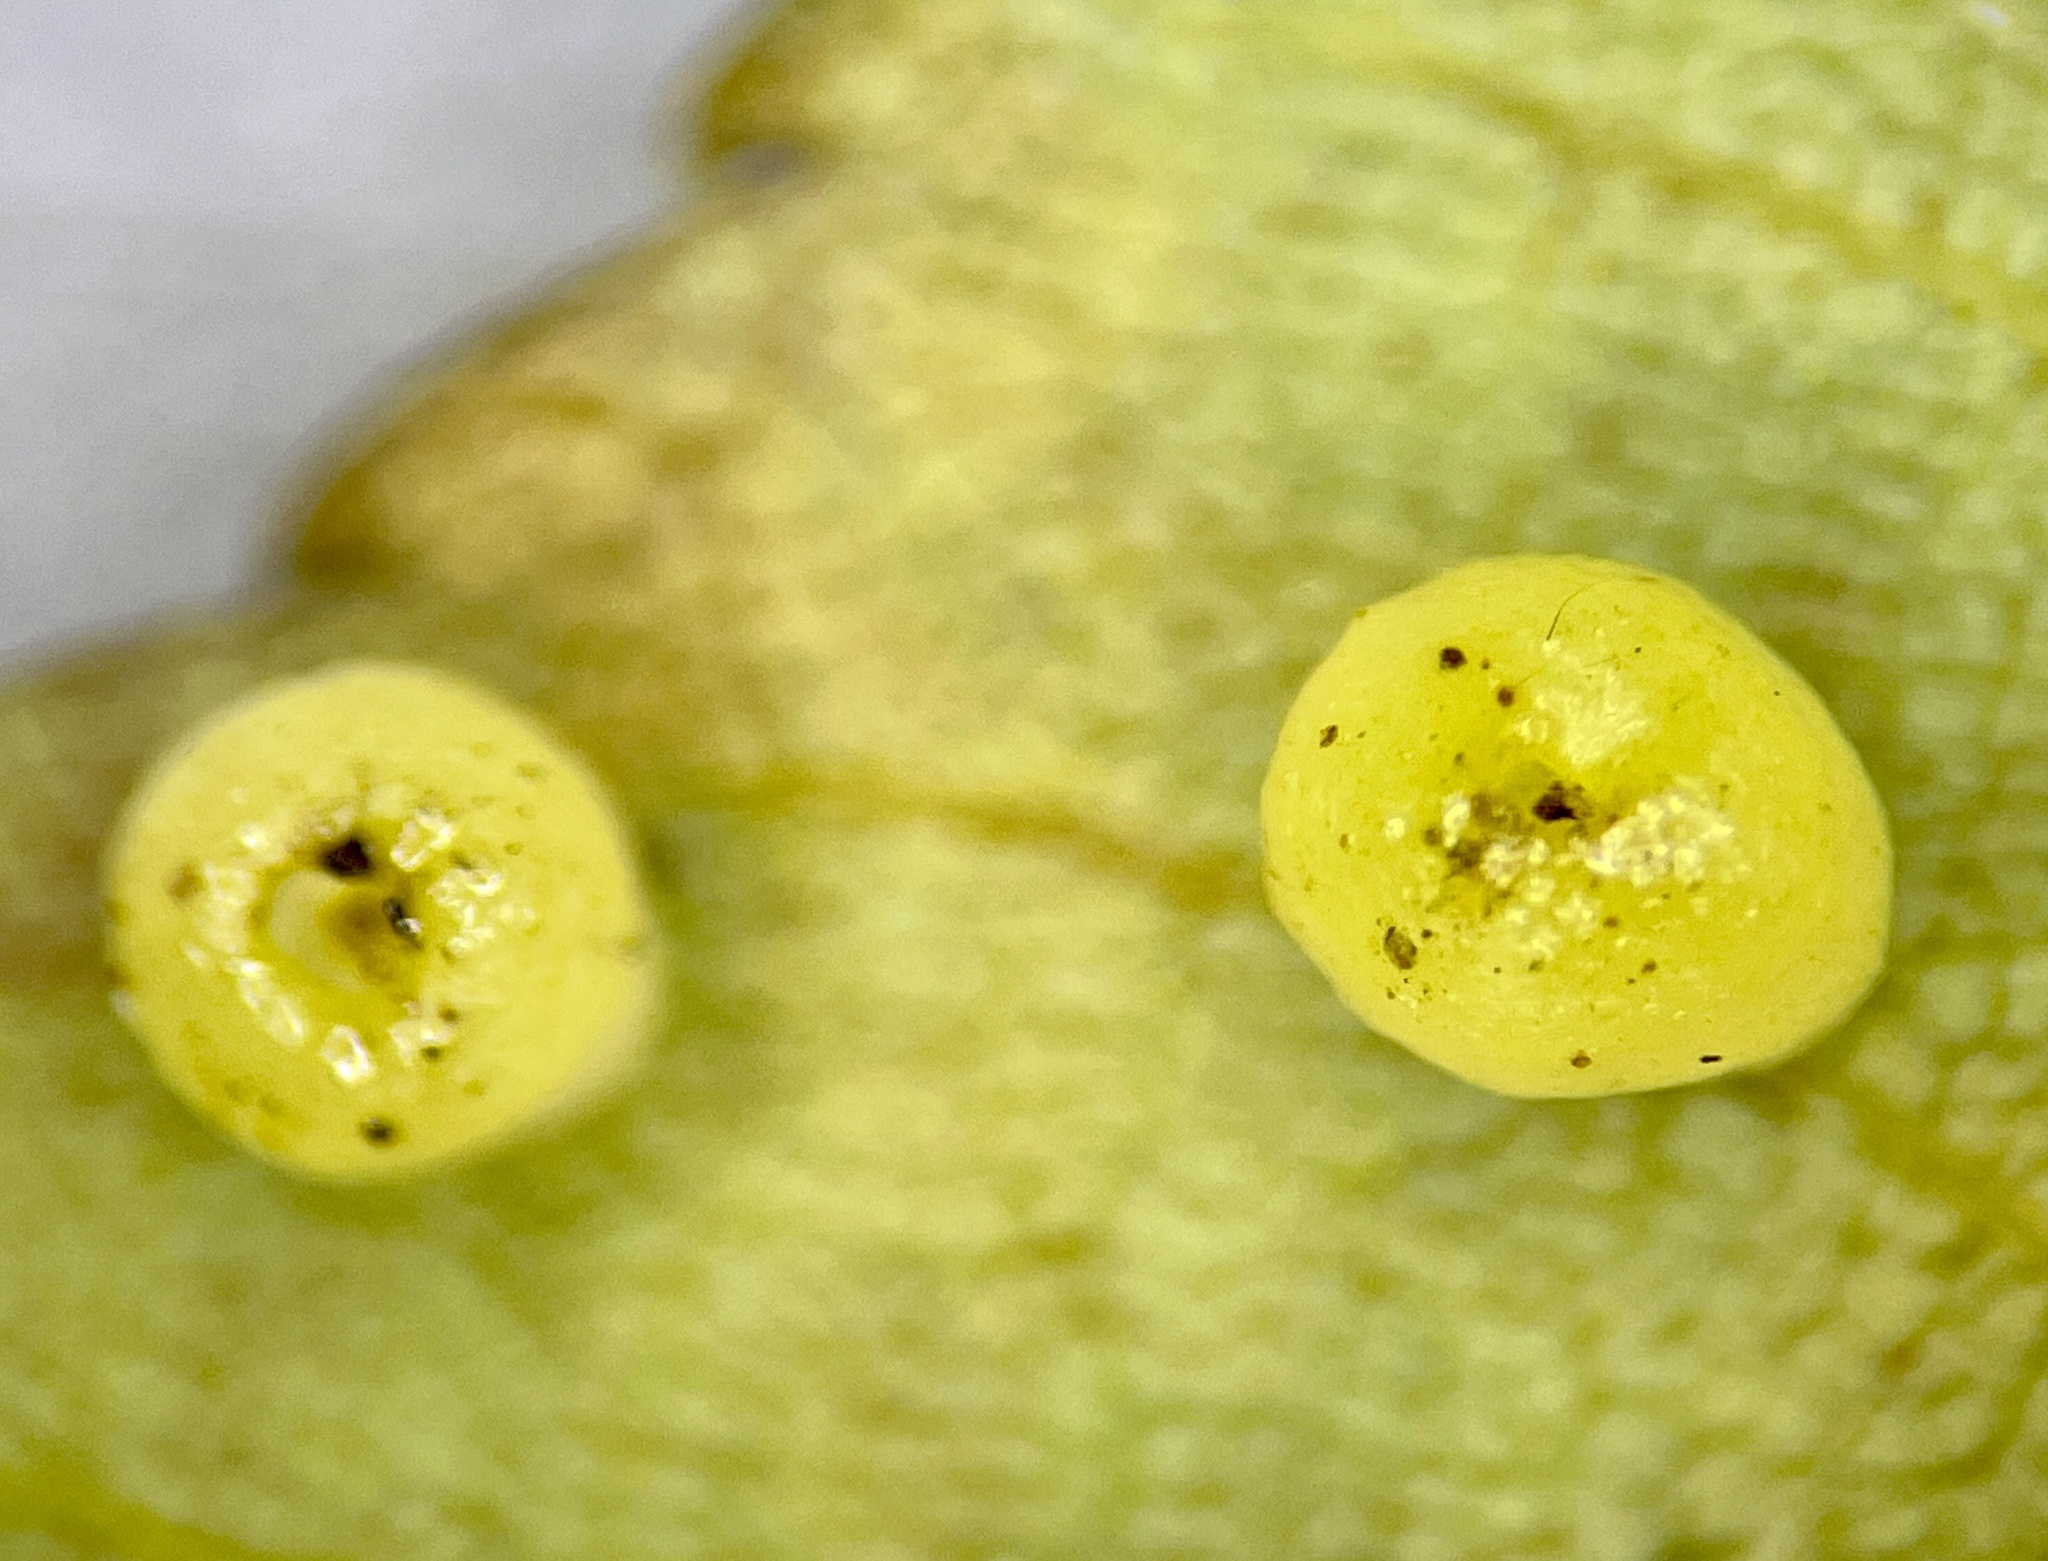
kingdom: Animalia
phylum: Arthropoda
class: Insecta
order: Diptera
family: Cecidomyiidae
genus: Caryomyia
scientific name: Caryomyia flaticrustum
